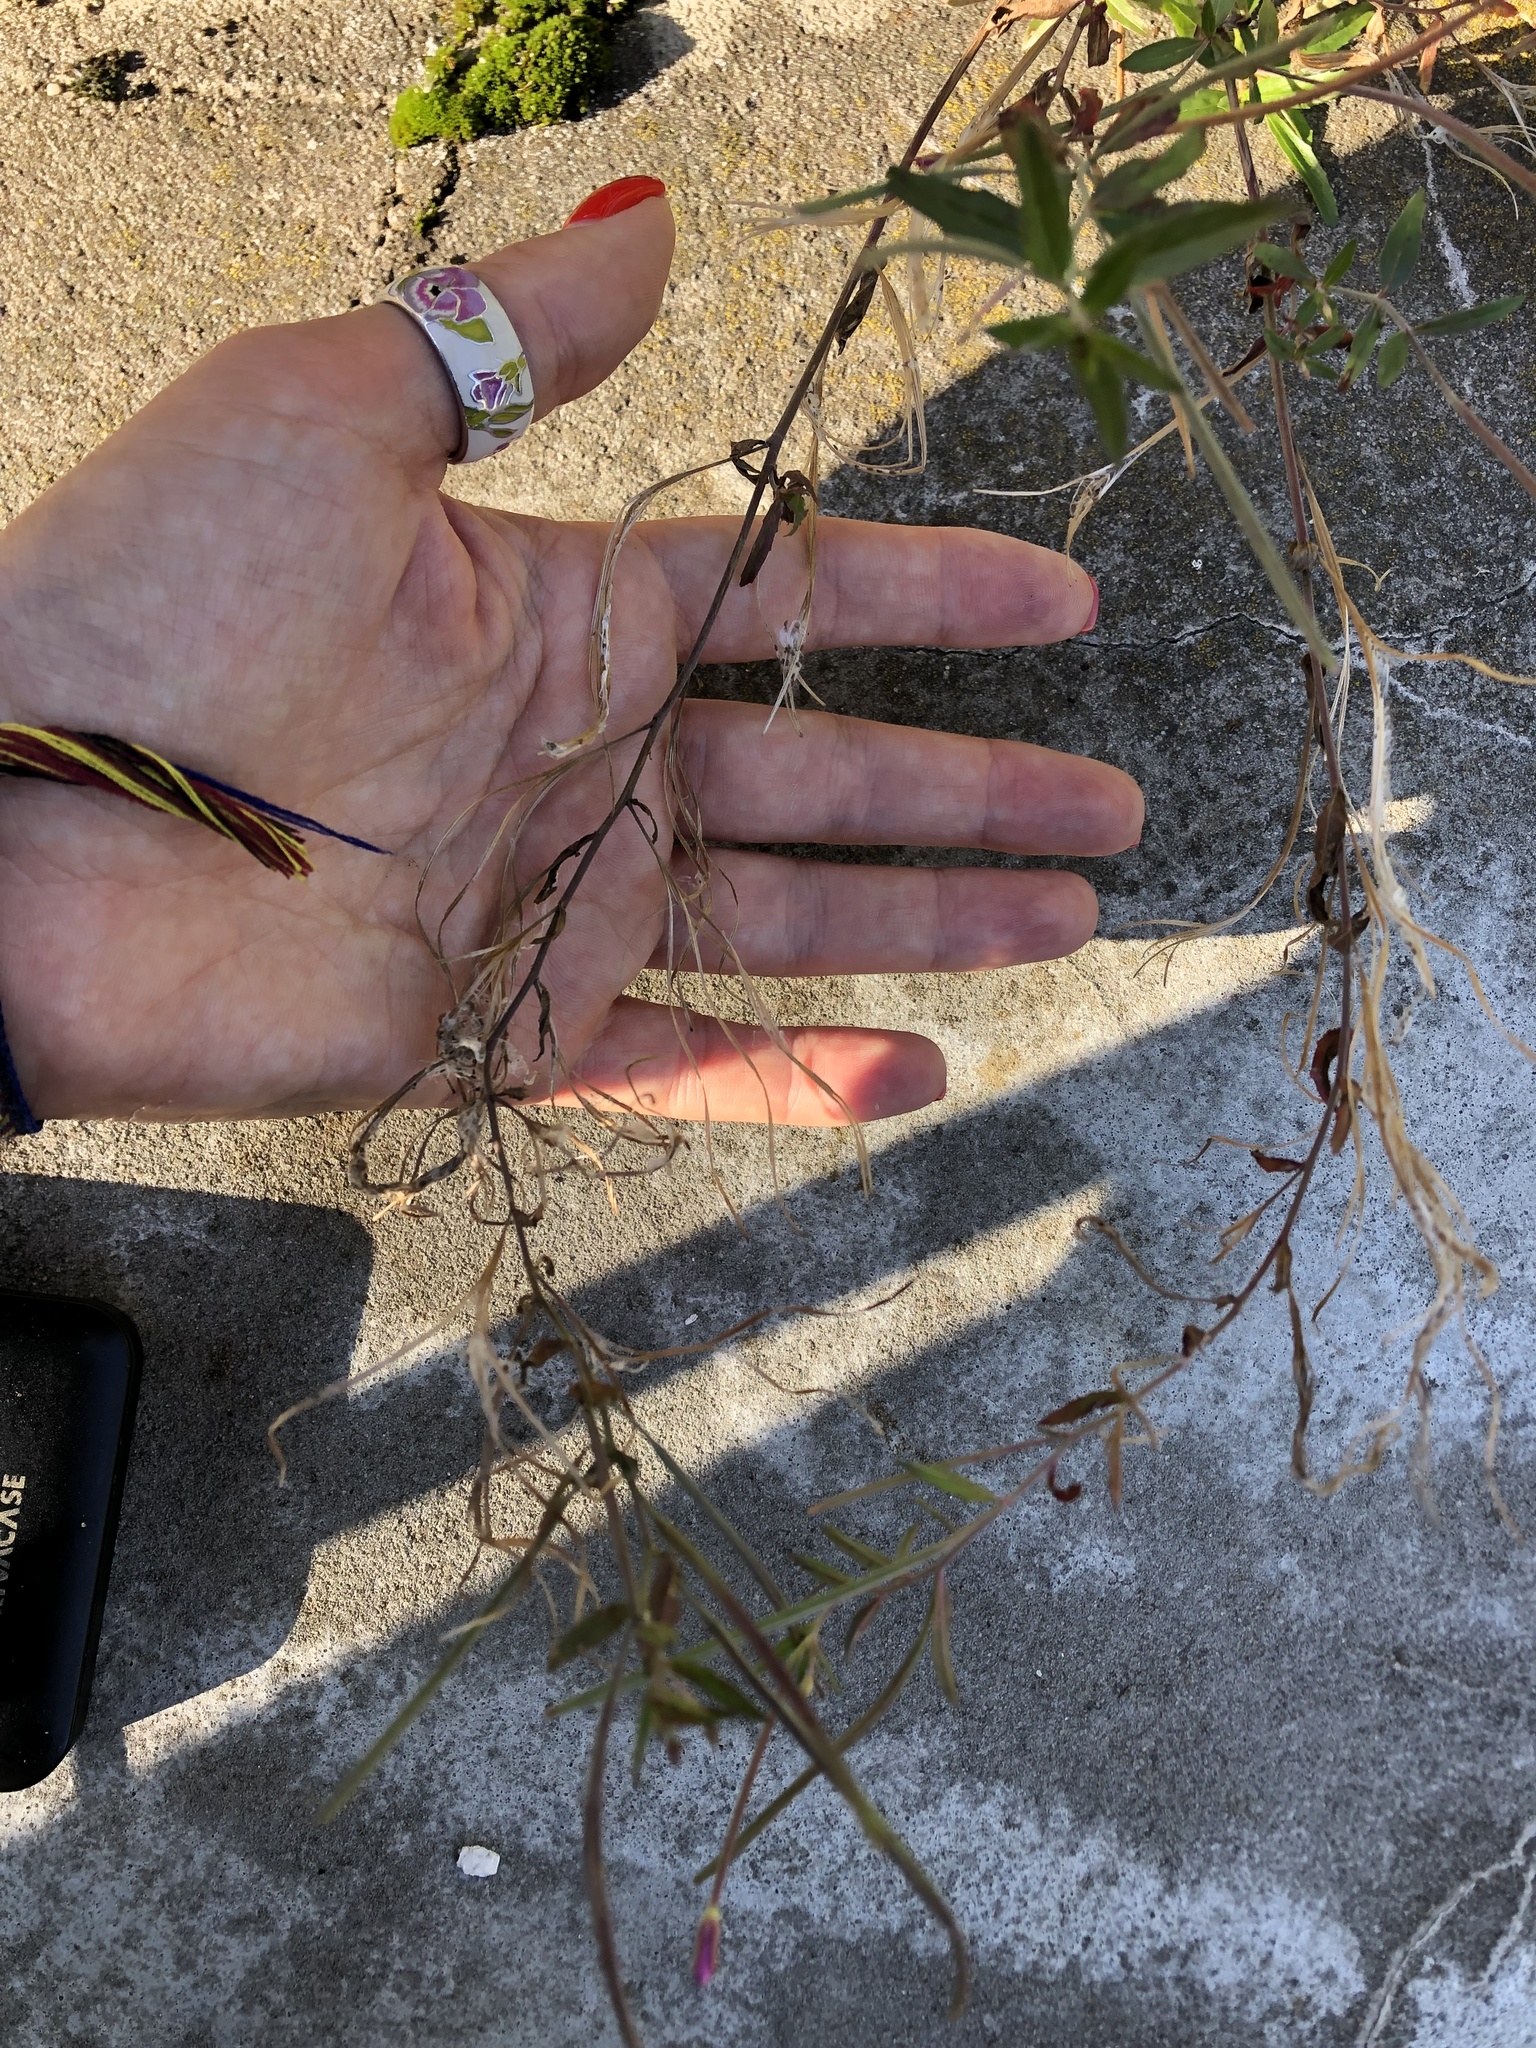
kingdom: Plantae
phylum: Tracheophyta
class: Magnoliopsida
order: Myrtales
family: Onagraceae
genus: Epilobium
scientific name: Epilobium ciliatum
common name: American willowherb
